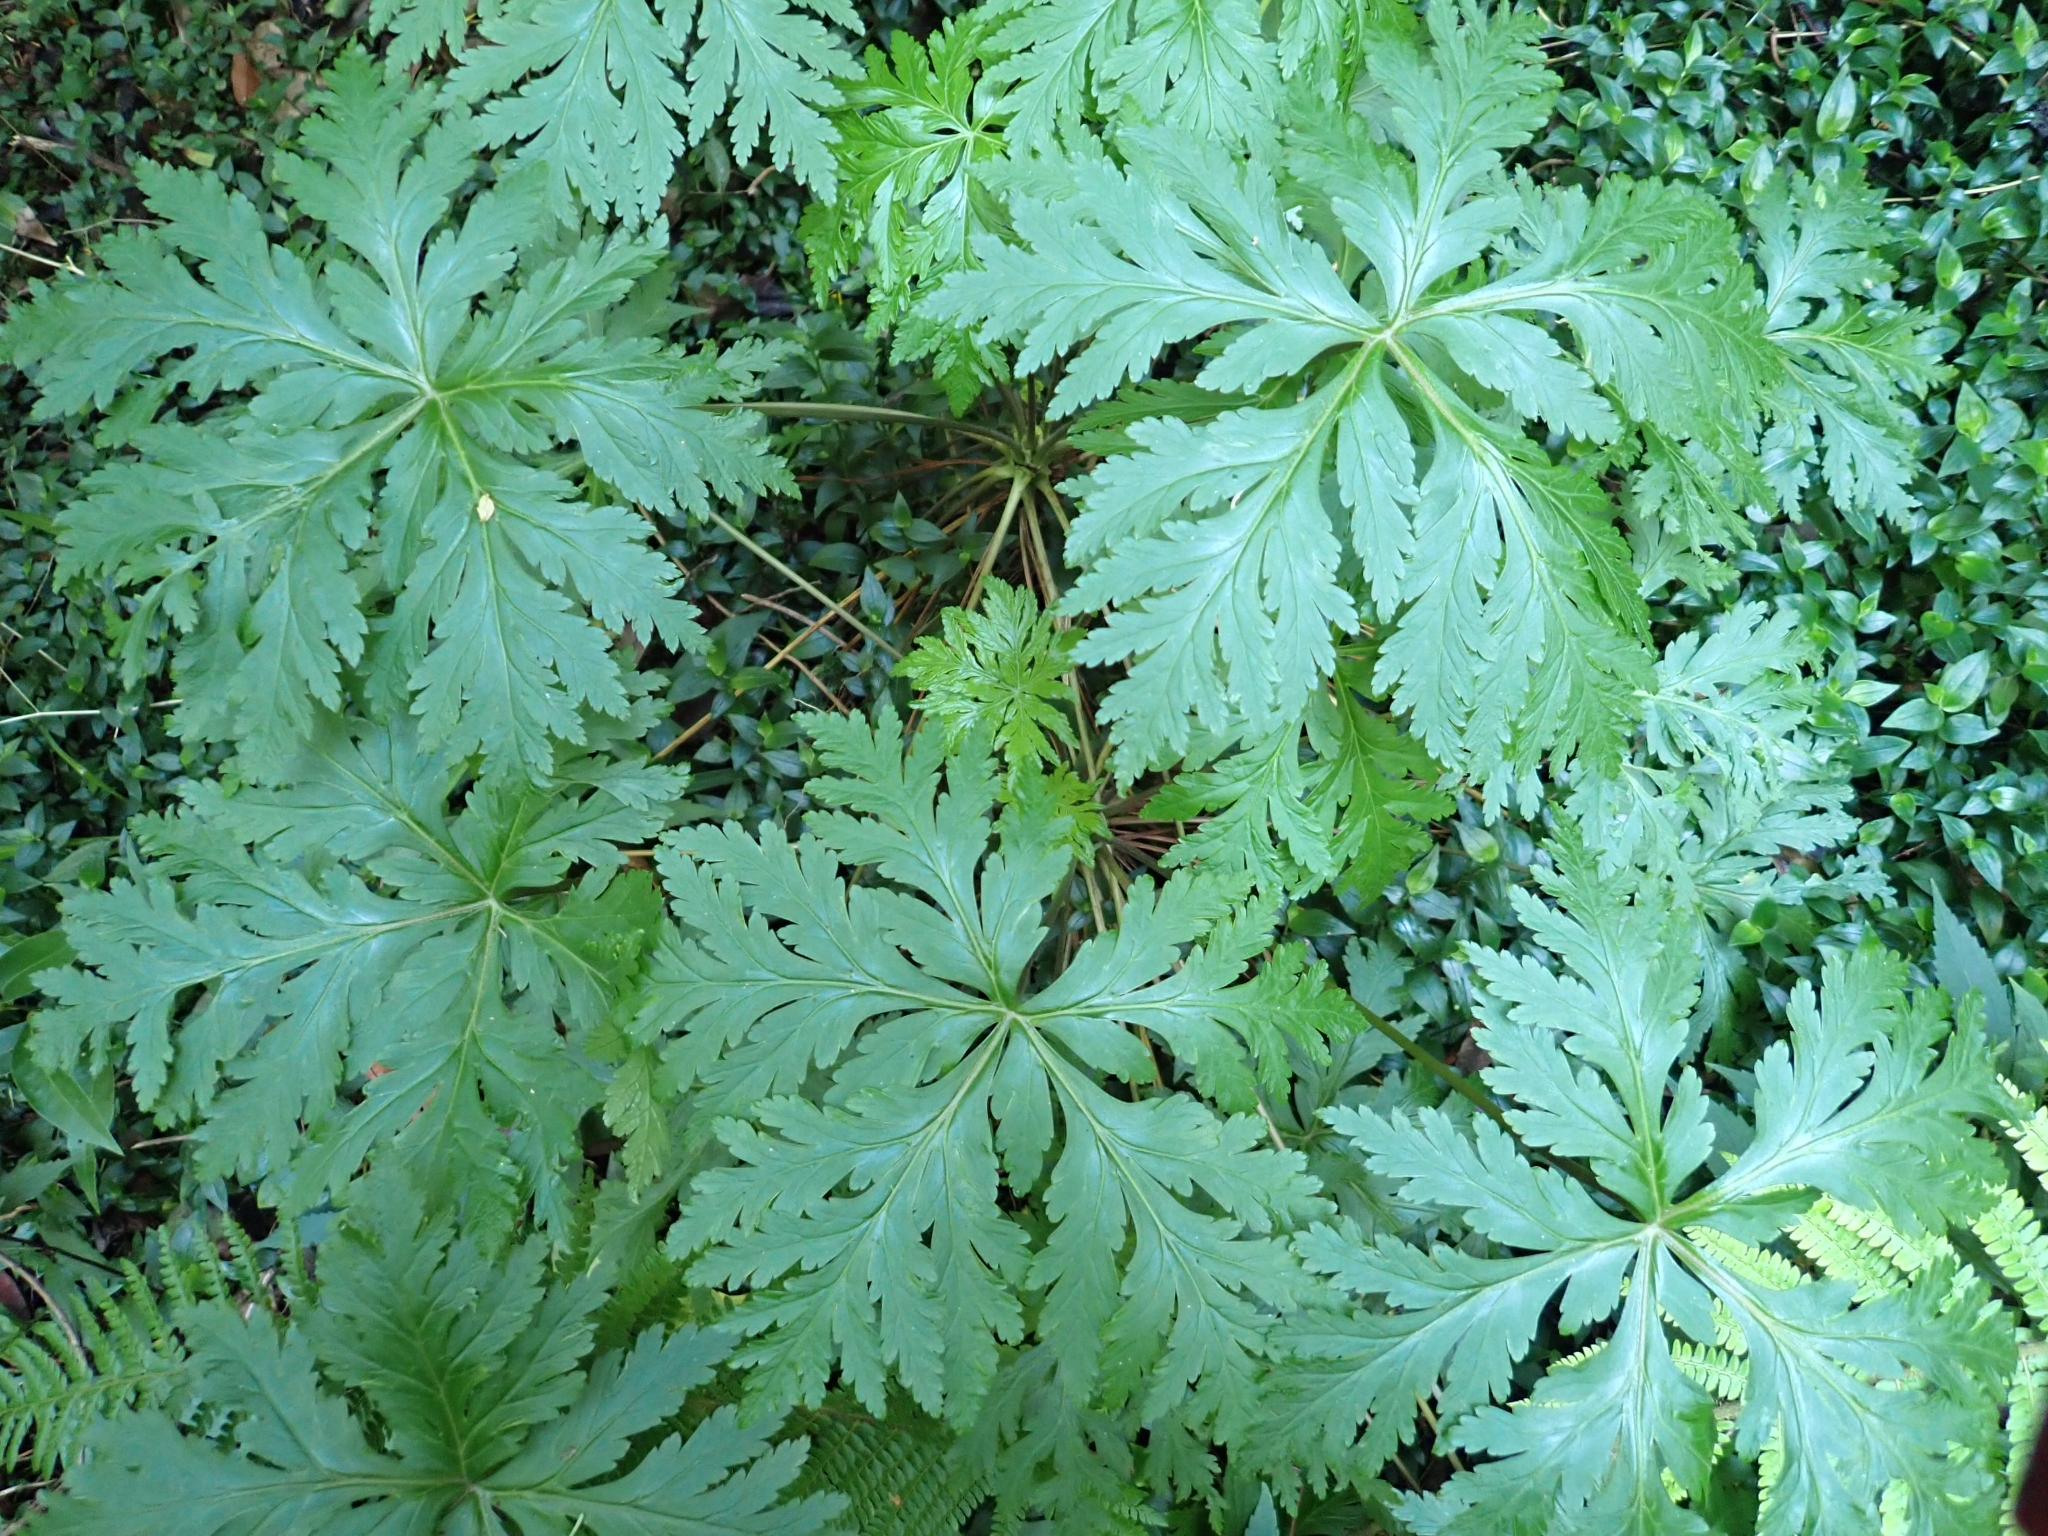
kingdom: Plantae
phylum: Tracheophyta
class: Magnoliopsida
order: Geraniales
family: Geraniaceae
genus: Geranium
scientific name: Geranium reuteri
